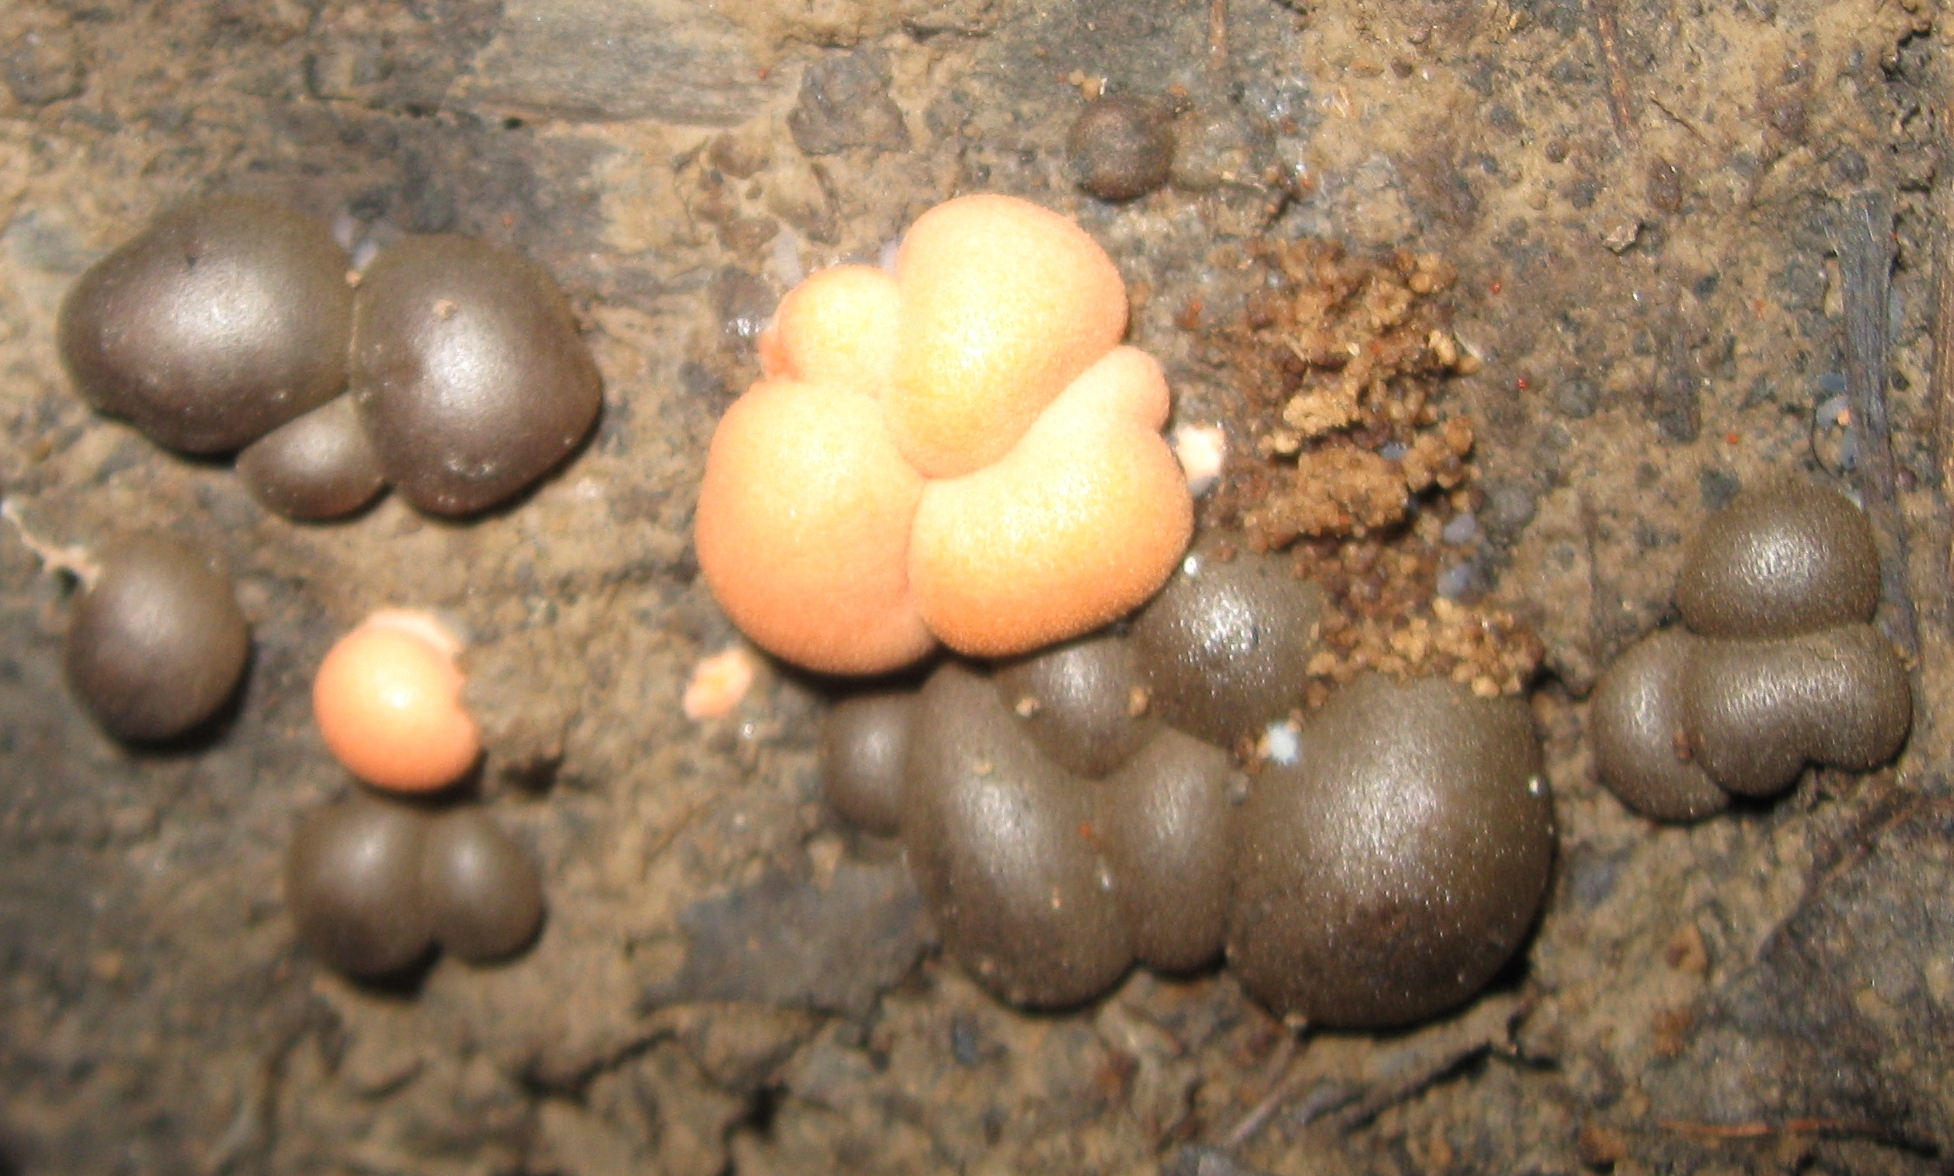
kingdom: Protozoa
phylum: Mycetozoa
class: Myxomycetes
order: Cribrariales
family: Tubiferaceae
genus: Lycogala
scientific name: Lycogala epidendrum
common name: Wolf's milk
